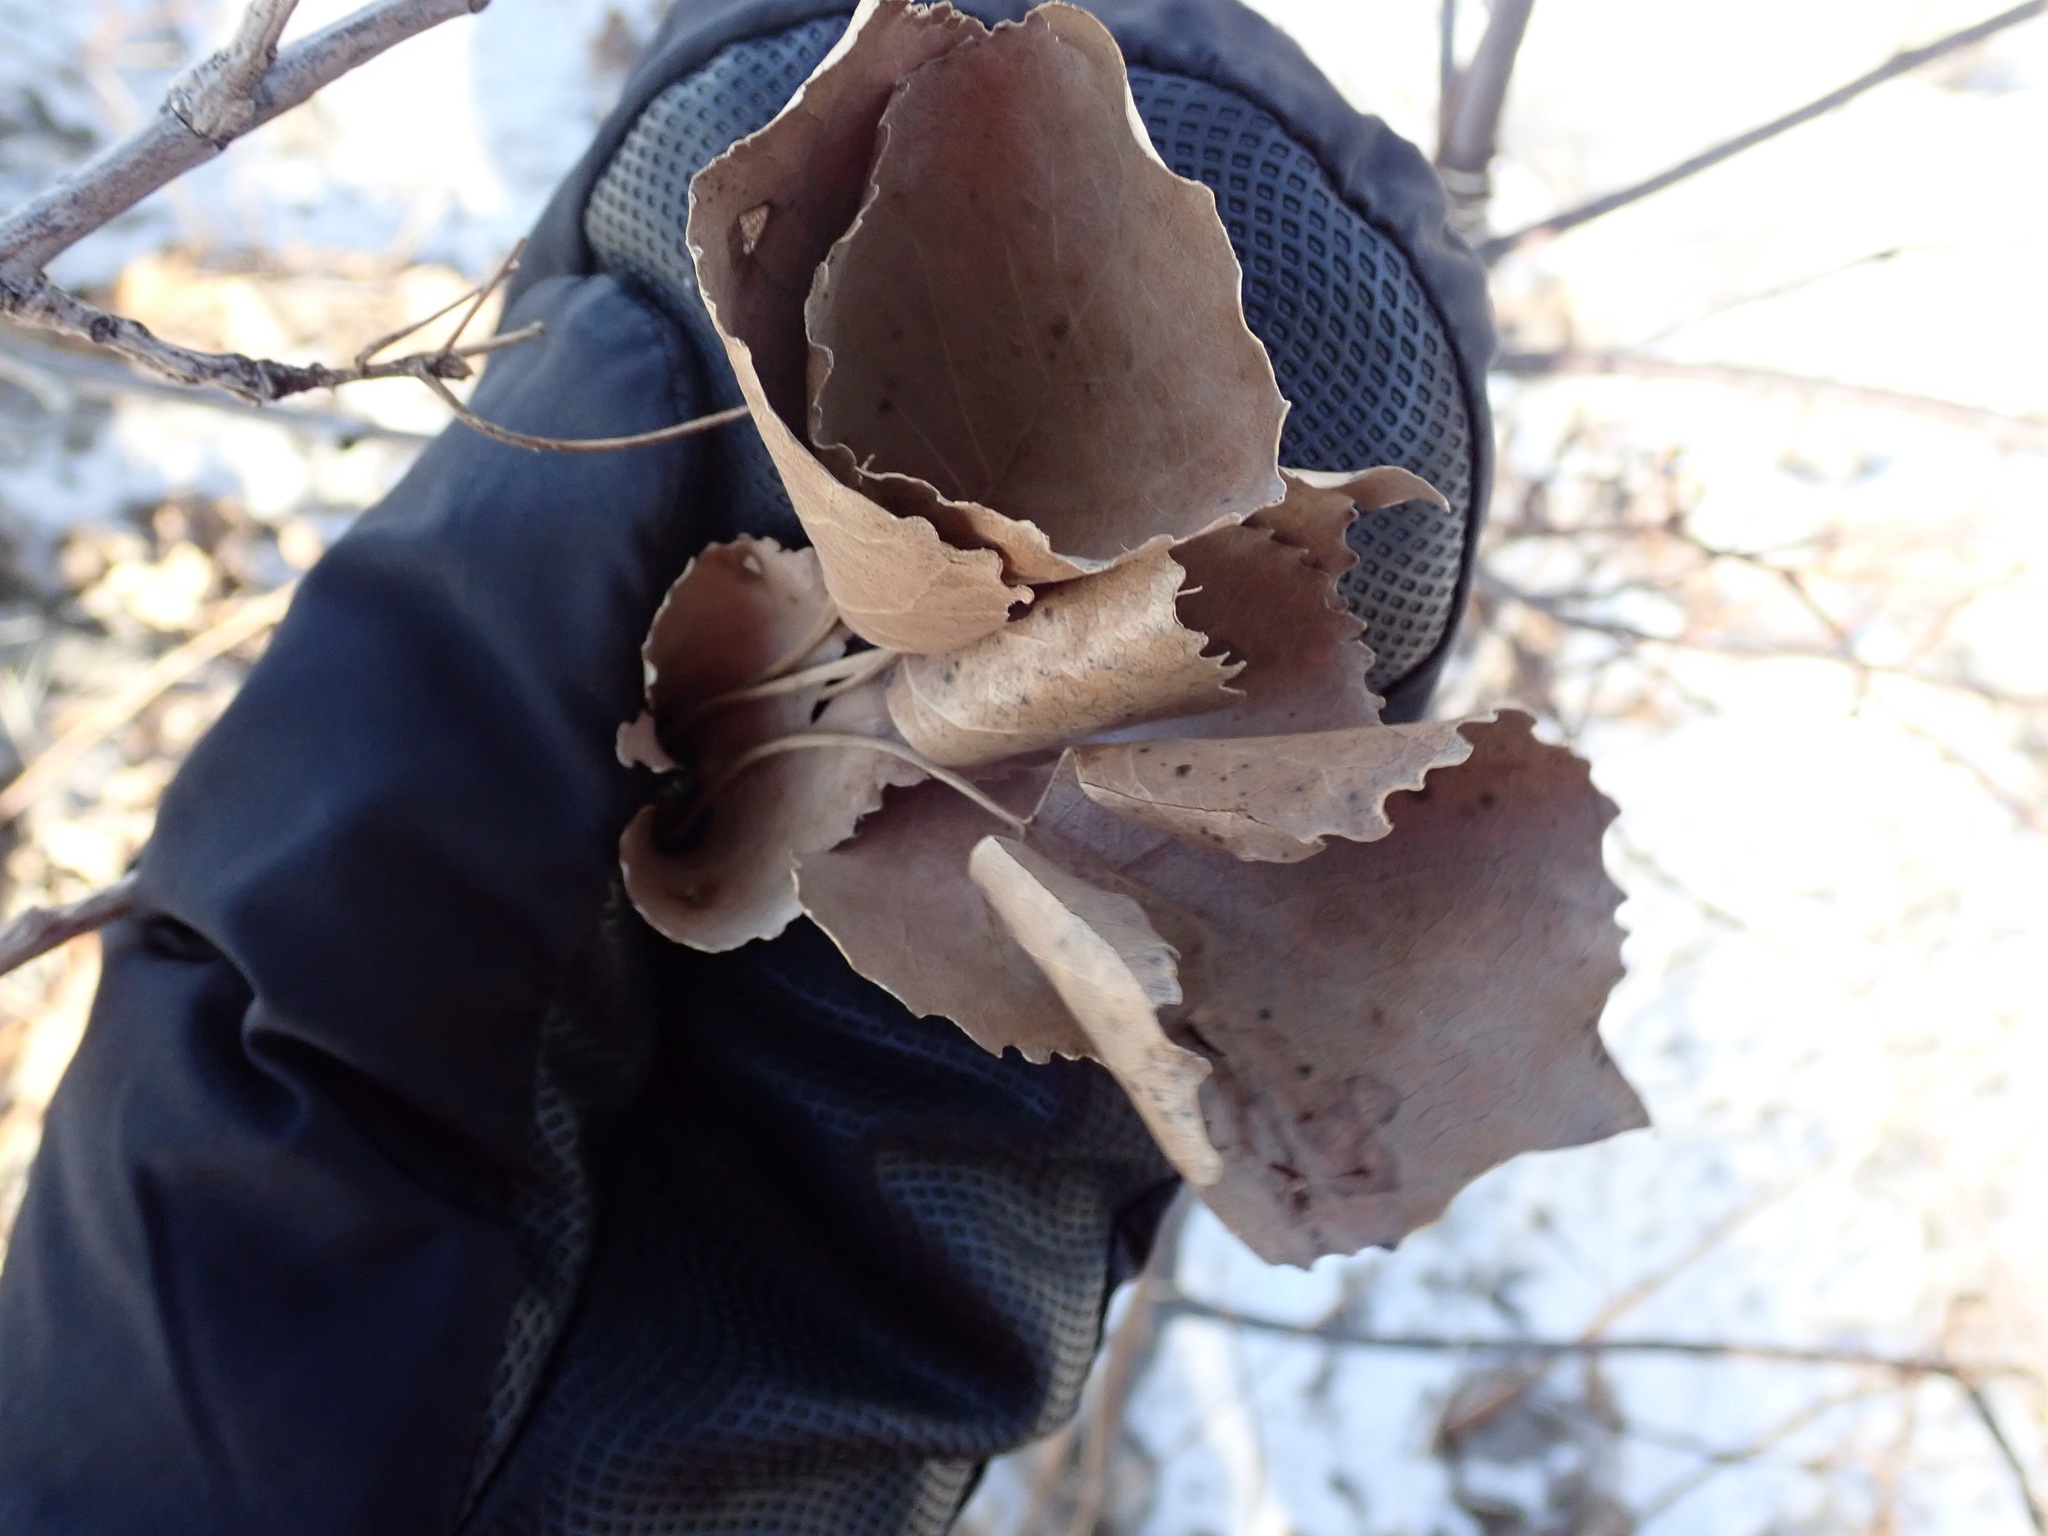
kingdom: Plantae
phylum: Tracheophyta
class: Magnoliopsida
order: Malpighiales
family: Salicaceae
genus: Populus
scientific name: Populus deltoides
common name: Eastern cottonwood
